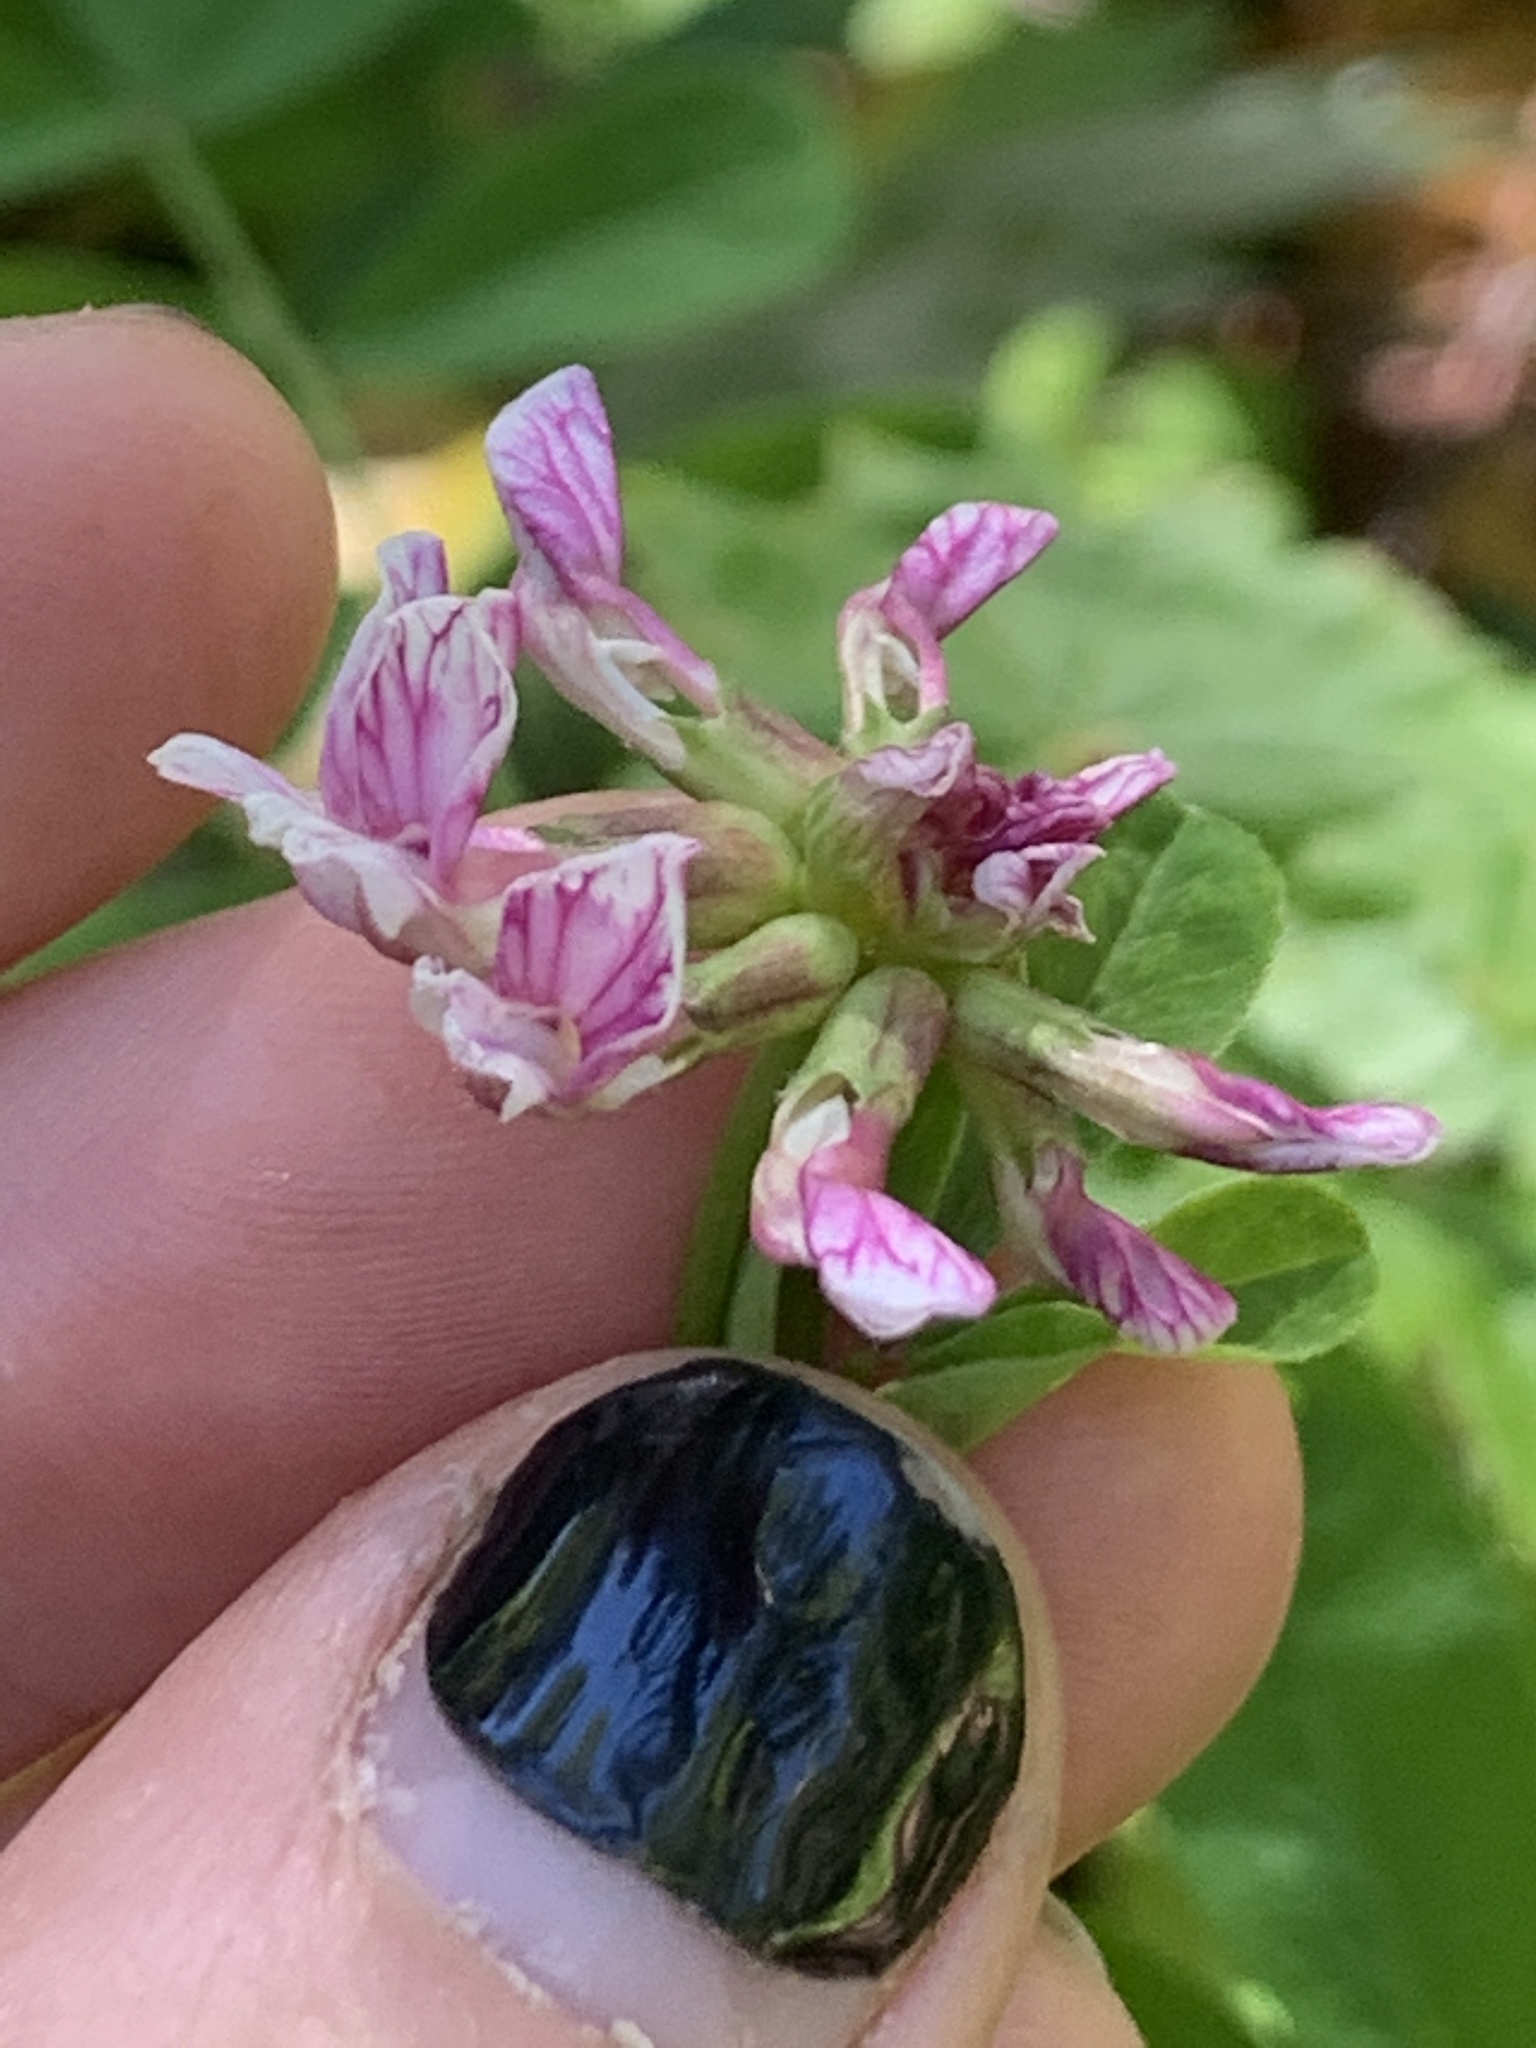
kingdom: Plantae
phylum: Tracheophyta
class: Magnoliopsida
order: Fabales
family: Fabaceae
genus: Hosackia
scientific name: Hosackia rosea
